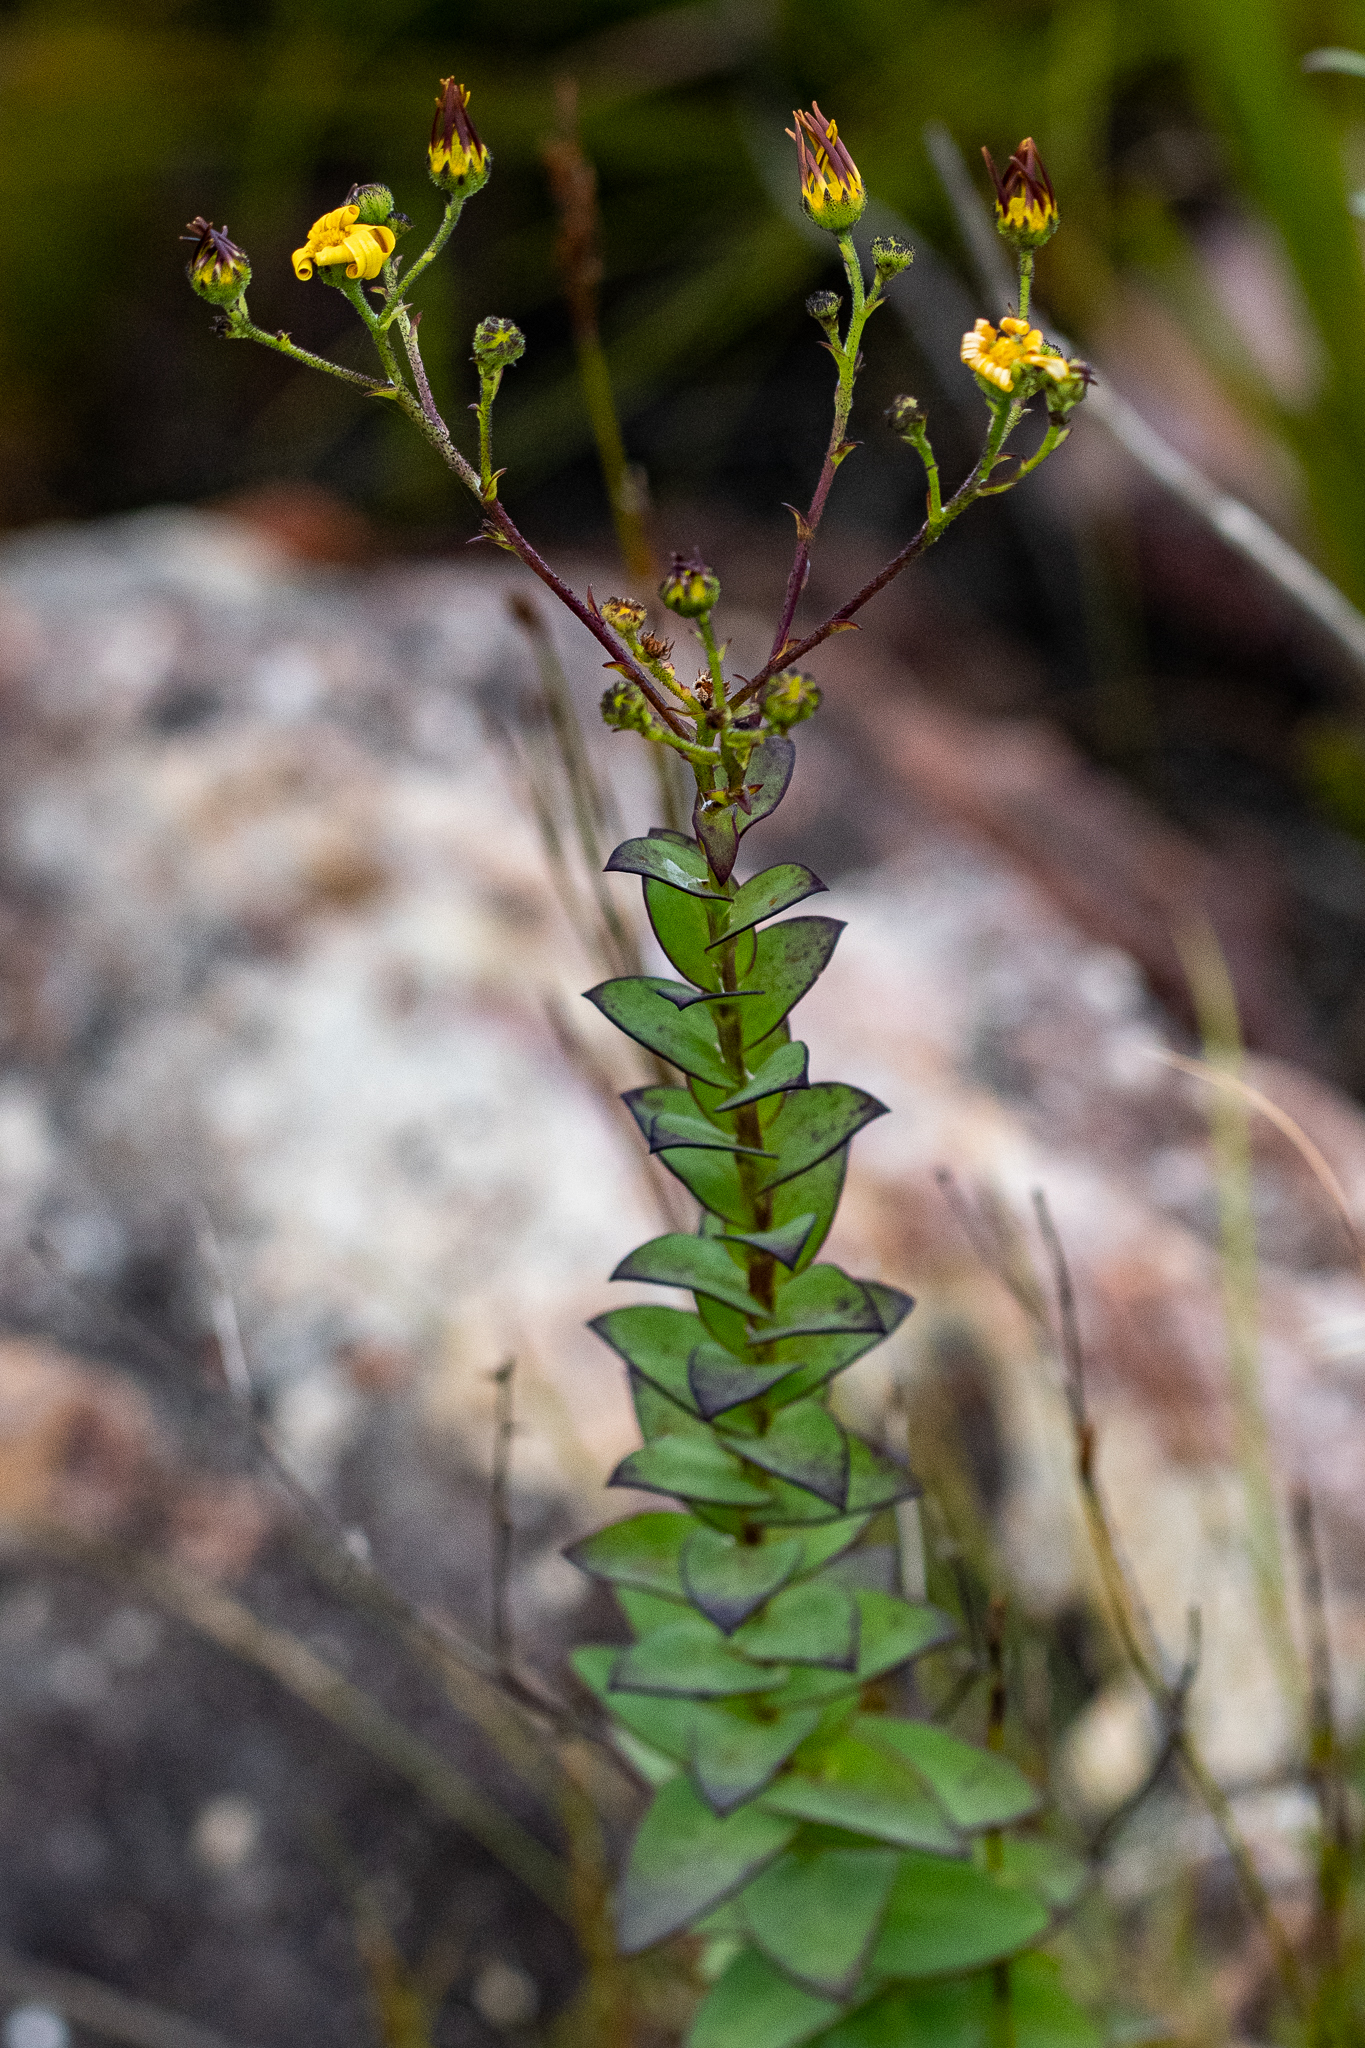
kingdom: Plantae
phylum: Tracheophyta
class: Magnoliopsida
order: Asterales
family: Asteraceae
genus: Osteospermum
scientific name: Osteospermum rotundifolium
